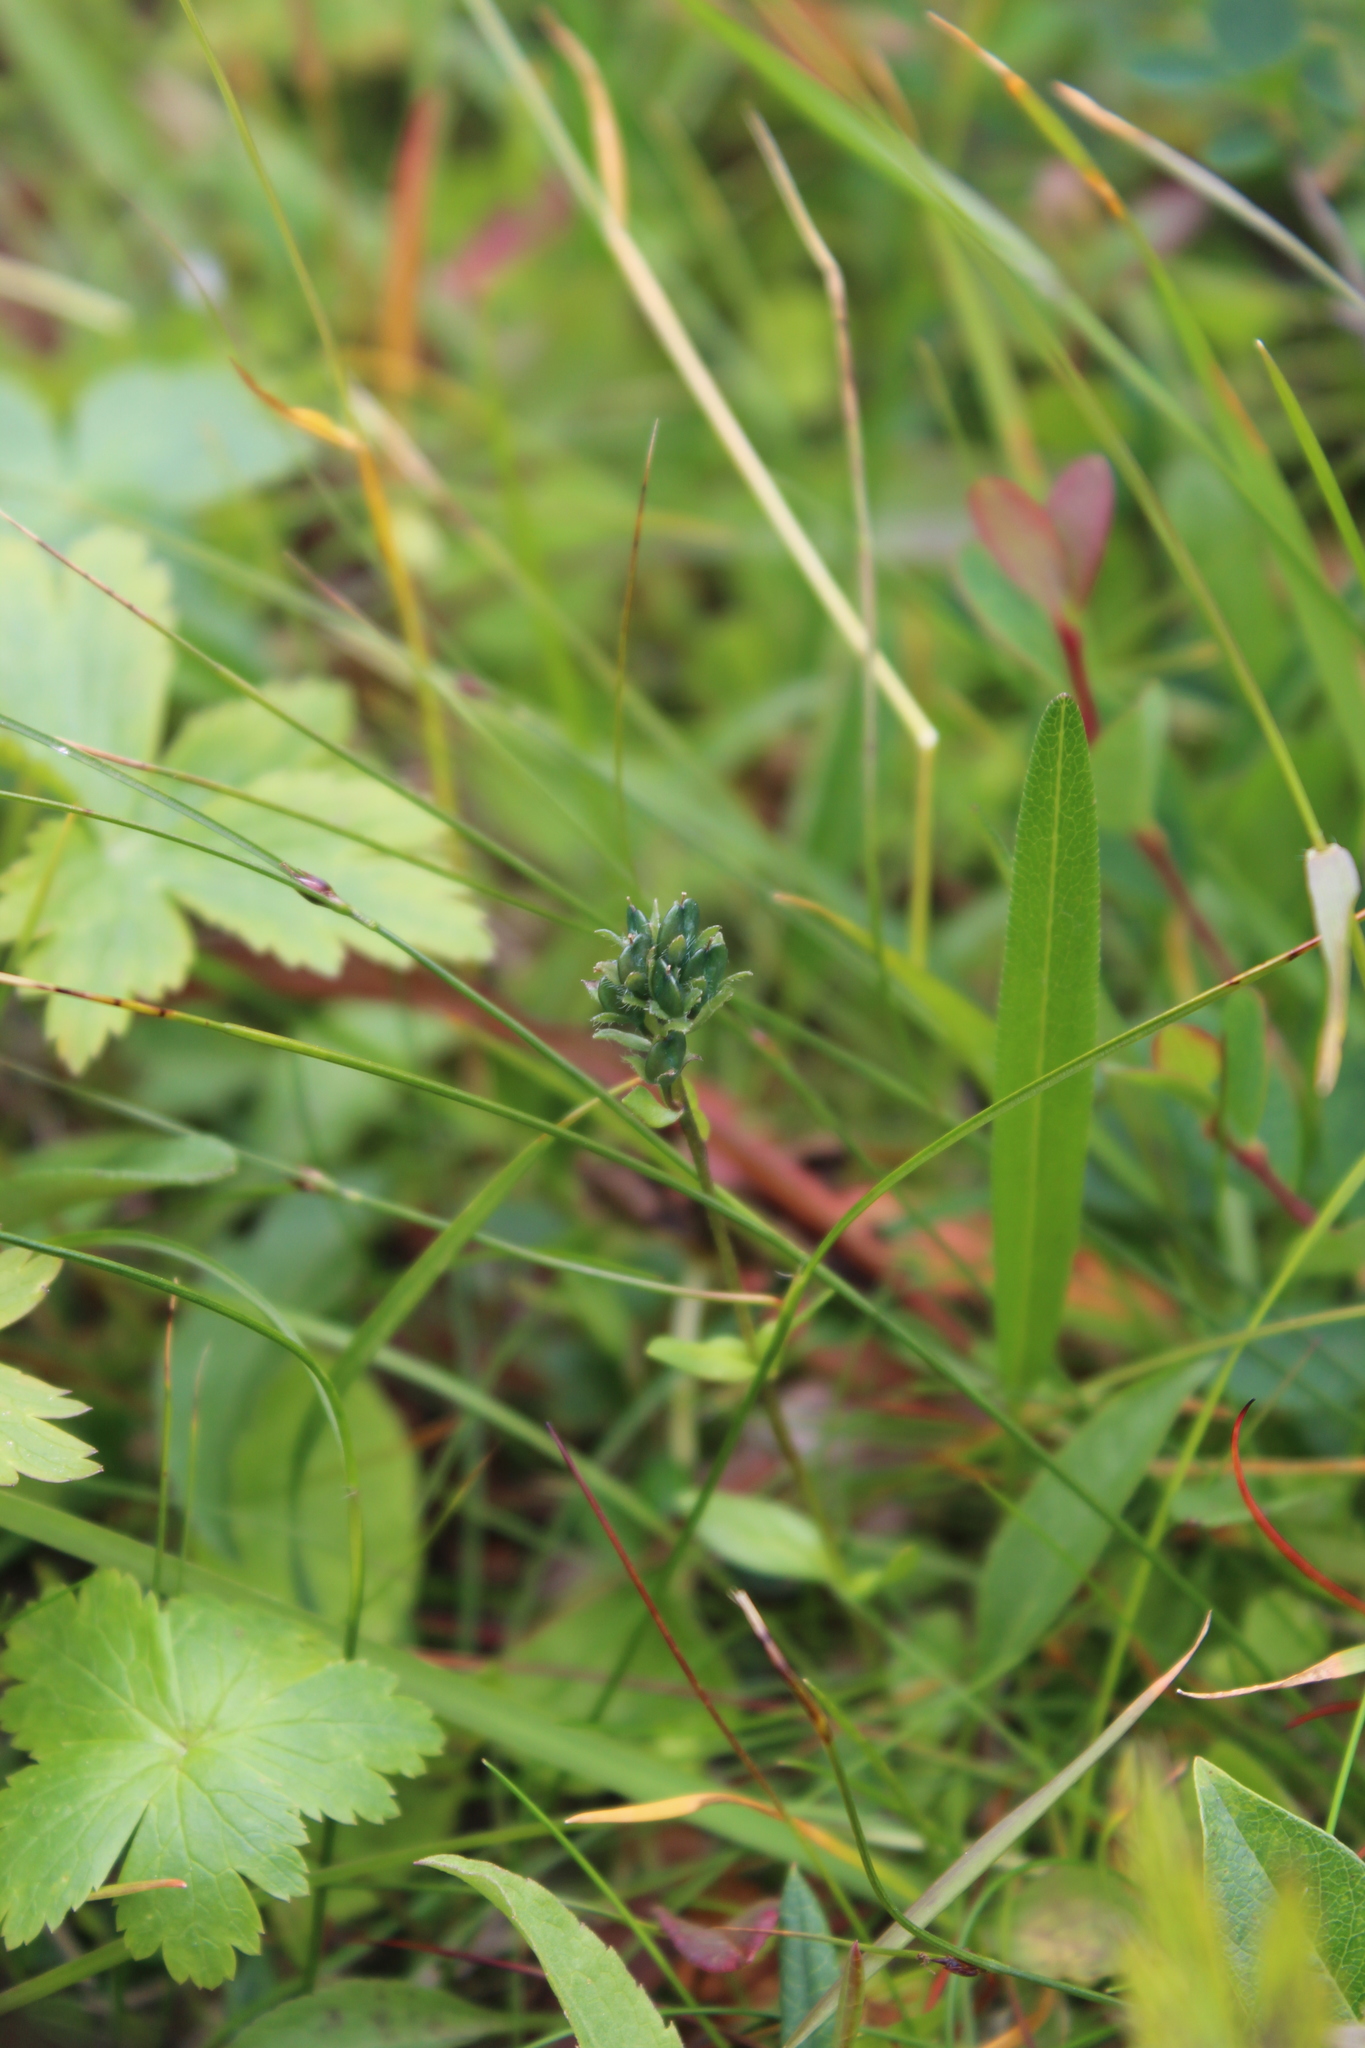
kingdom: Plantae
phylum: Tracheophyta
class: Magnoliopsida
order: Lamiales
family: Plantaginaceae
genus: Veronica
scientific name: Veronica alpina
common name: Alpine speedwell
